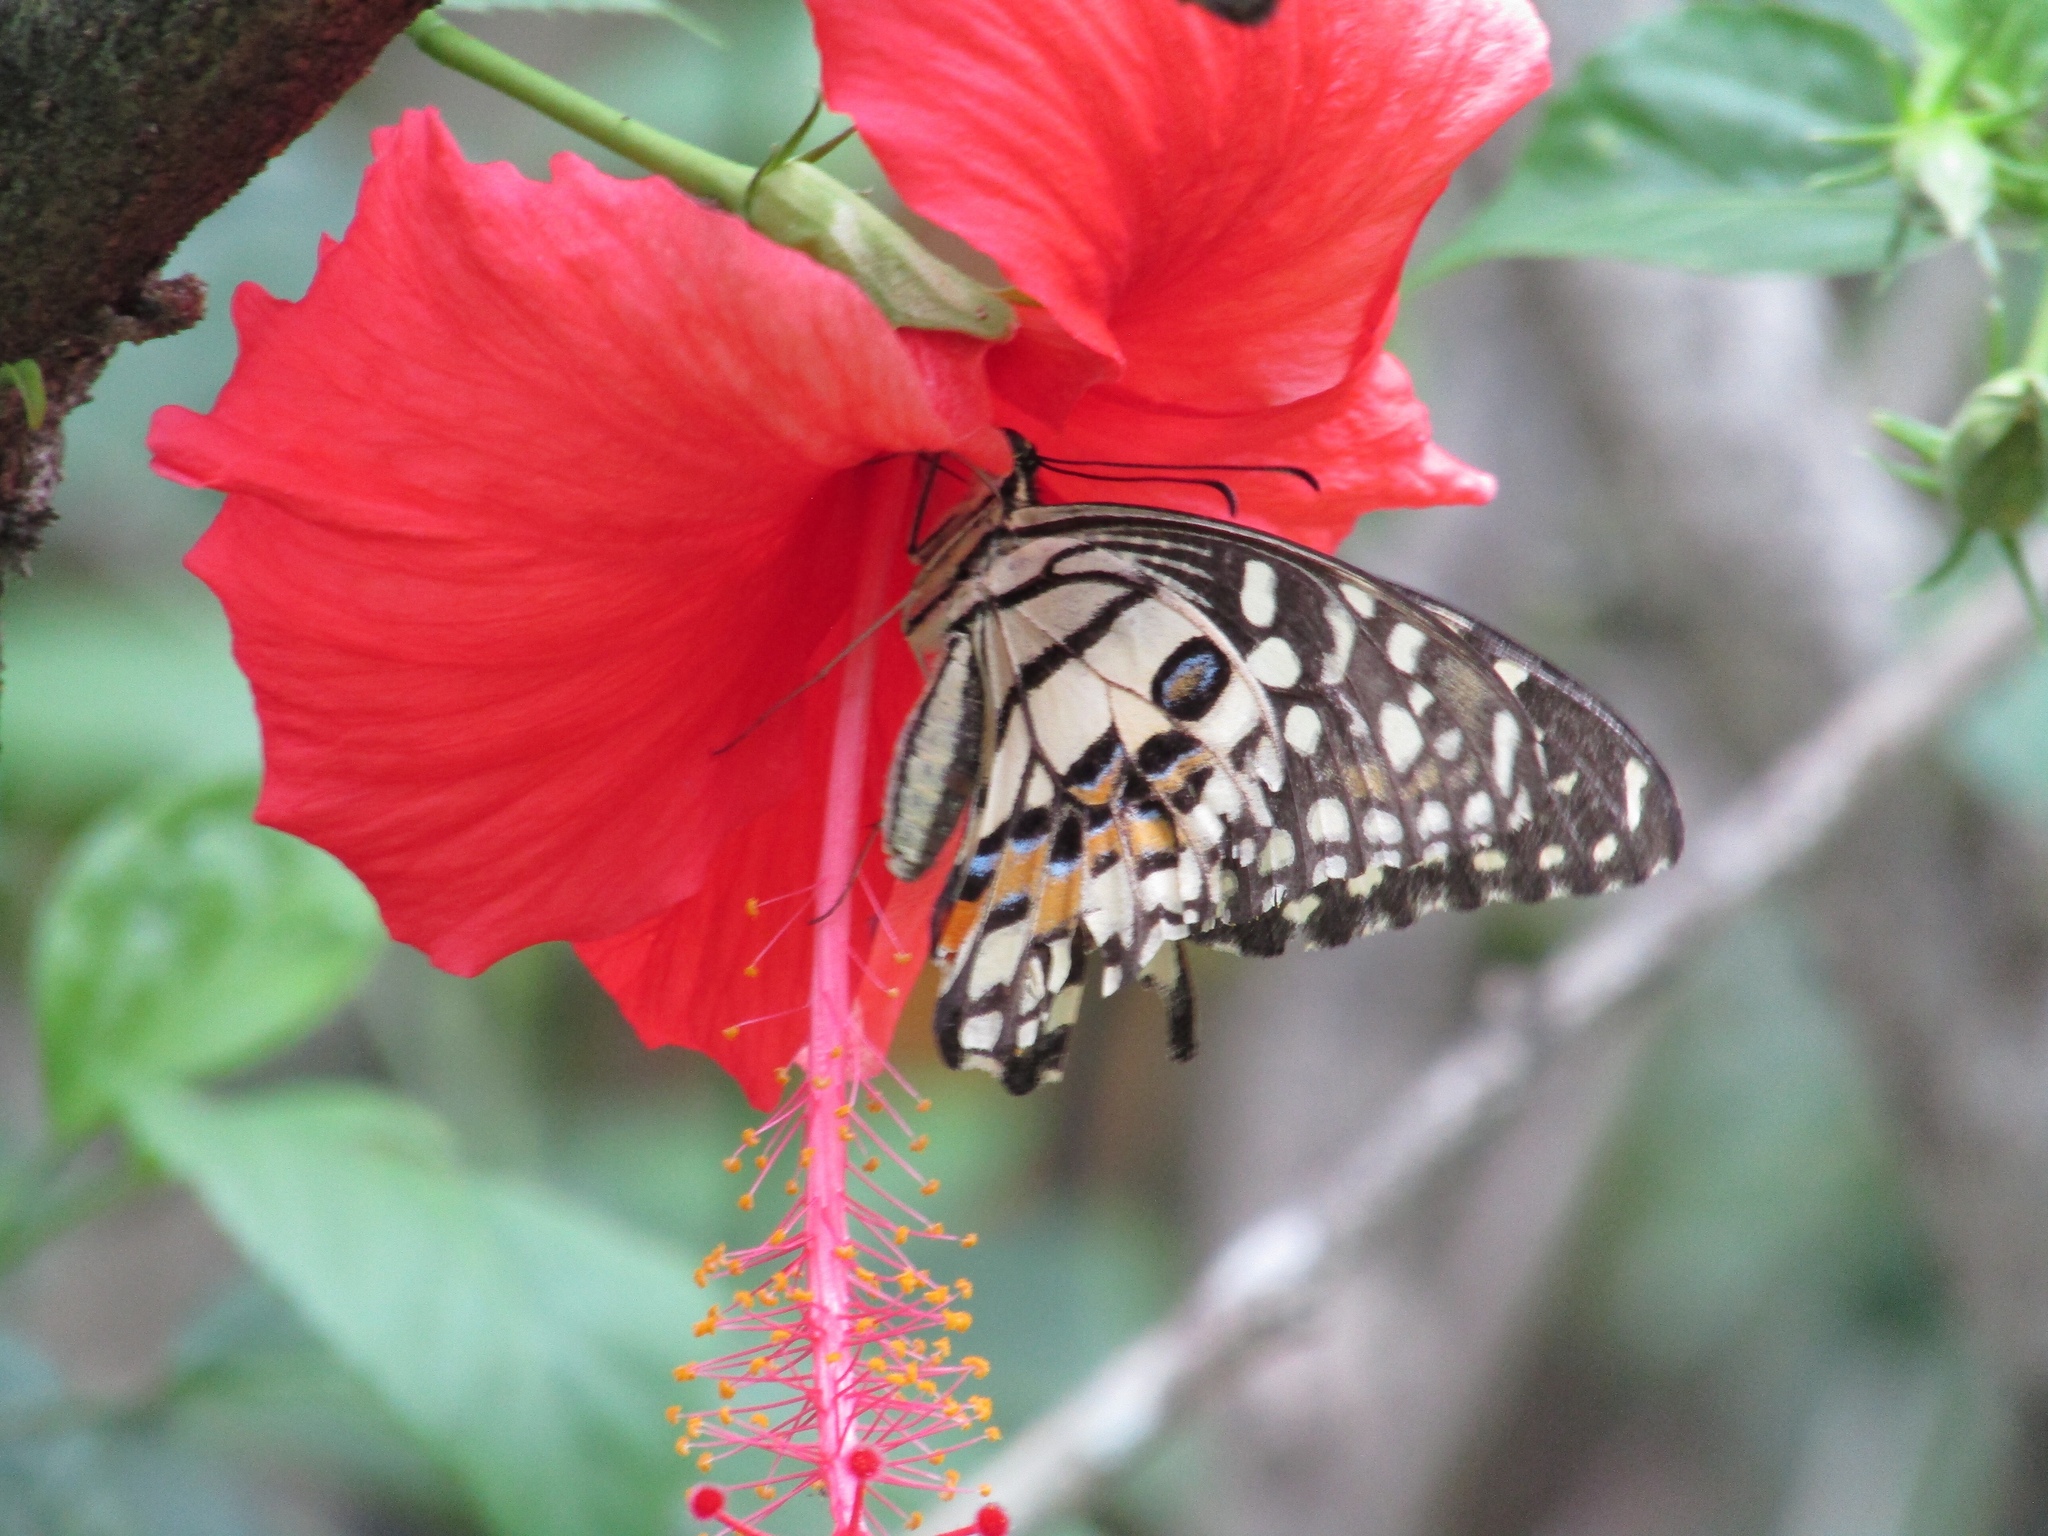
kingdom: Animalia
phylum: Arthropoda
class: Insecta
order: Lepidoptera
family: Papilionidae
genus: Papilio
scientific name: Papilio demoleus
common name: Lime butterfly
